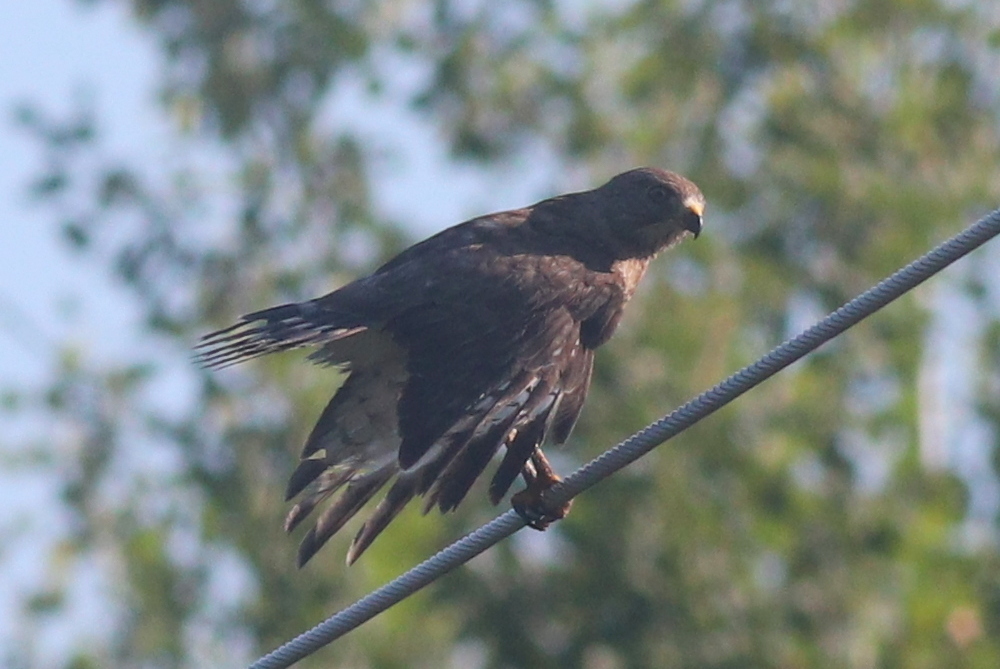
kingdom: Animalia
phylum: Chordata
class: Aves
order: Accipitriformes
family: Accipitridae
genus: Buteo
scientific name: Buteo platypterus
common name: Broad-winged hawk
